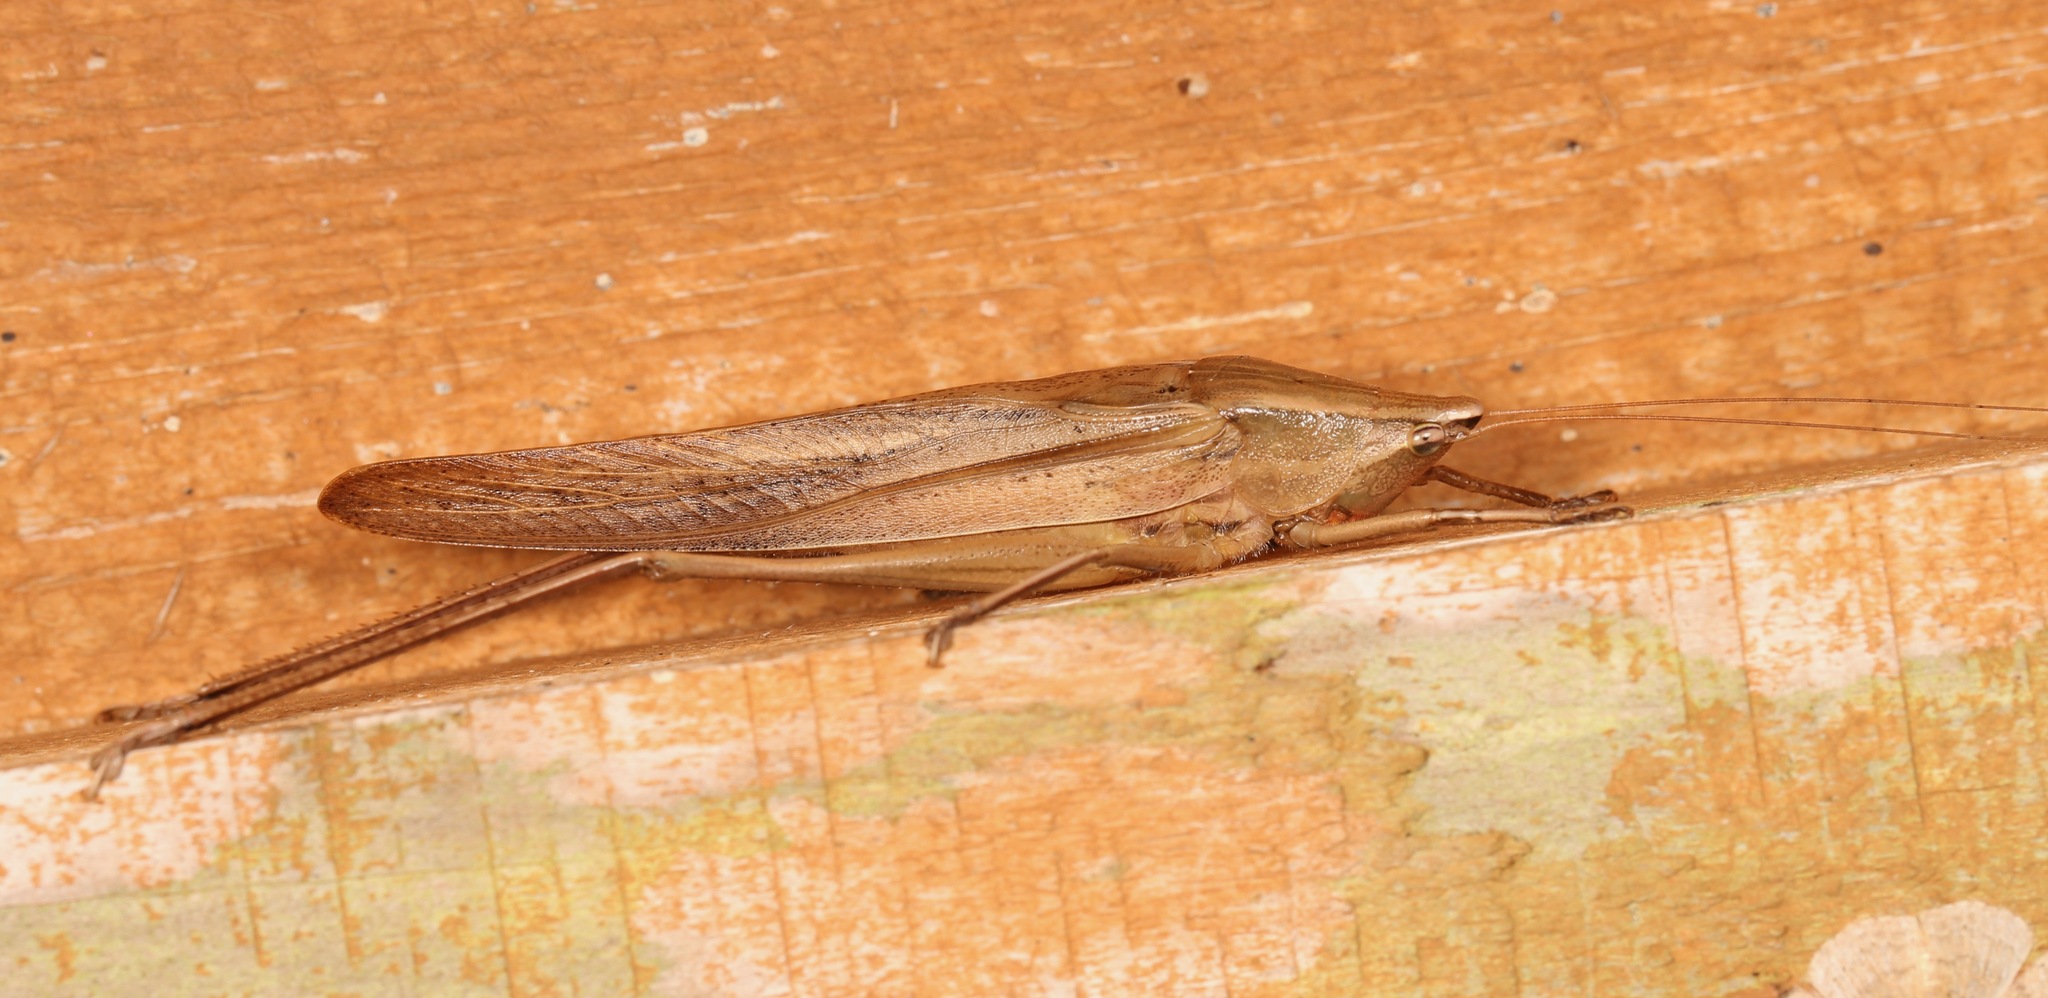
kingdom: Animalia
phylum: Arthropoda
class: Insecta
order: Orthoptera
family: Tettigoniidae
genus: Neoconocephalus
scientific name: Neoconocephalus triops
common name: Broad-tipped conehead
